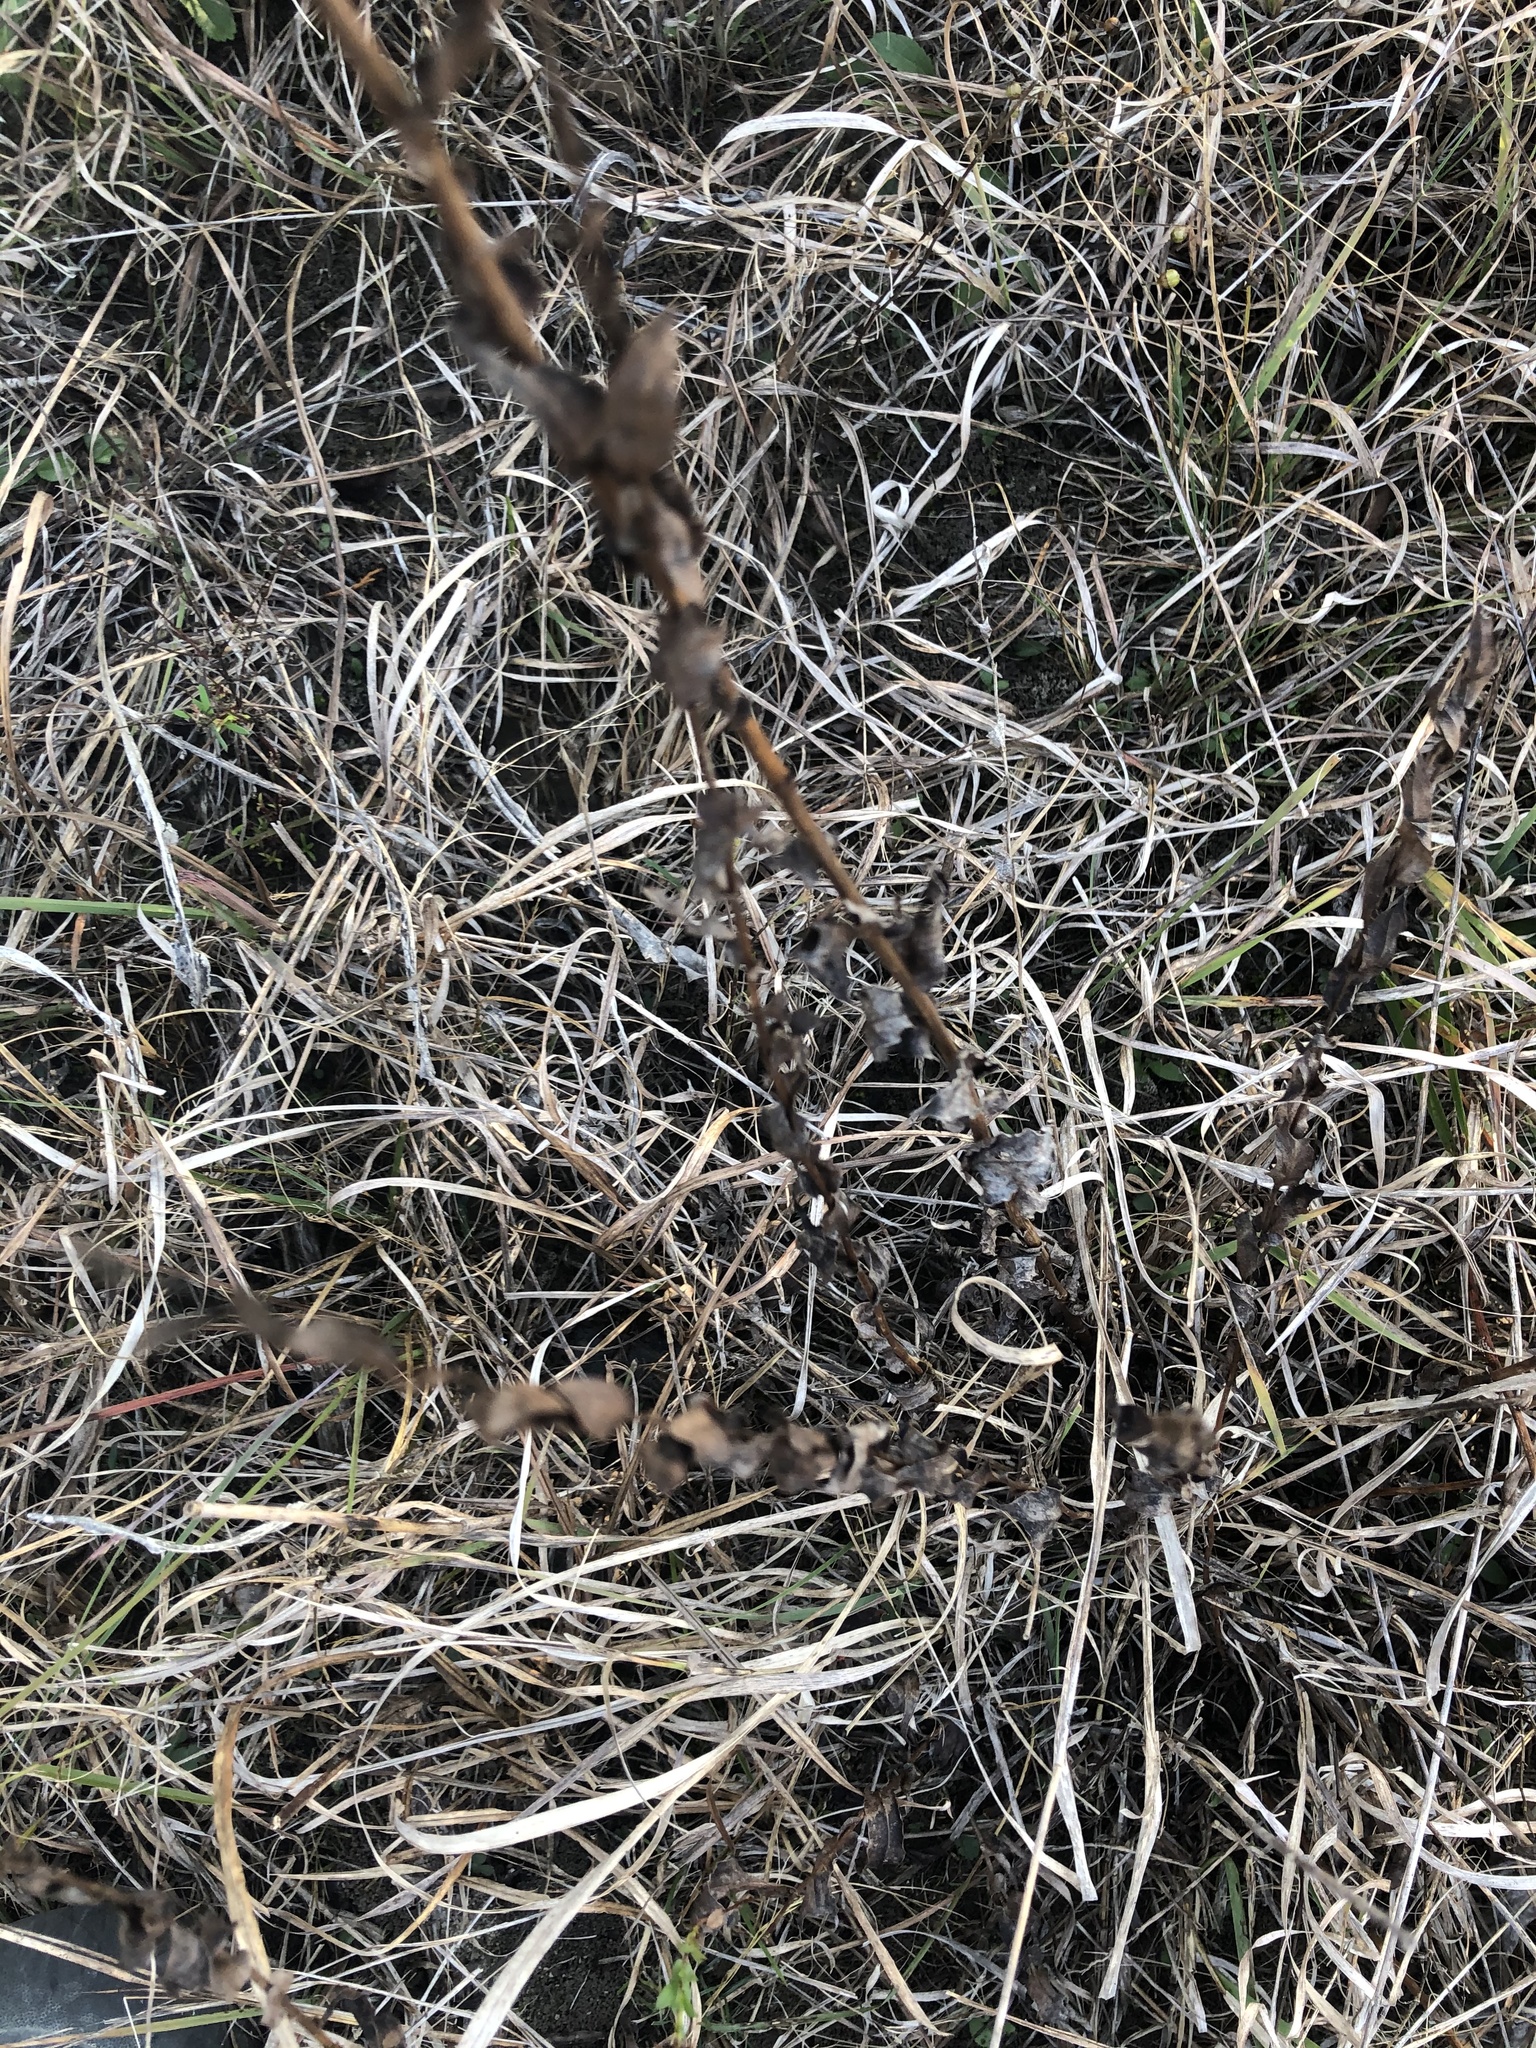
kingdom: Plantae
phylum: Tracheophyta
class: Magnoliopsida
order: Asterales
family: Asteraceae
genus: Symphyotrichum
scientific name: Symphyotrichum patens
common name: Late purple aster
